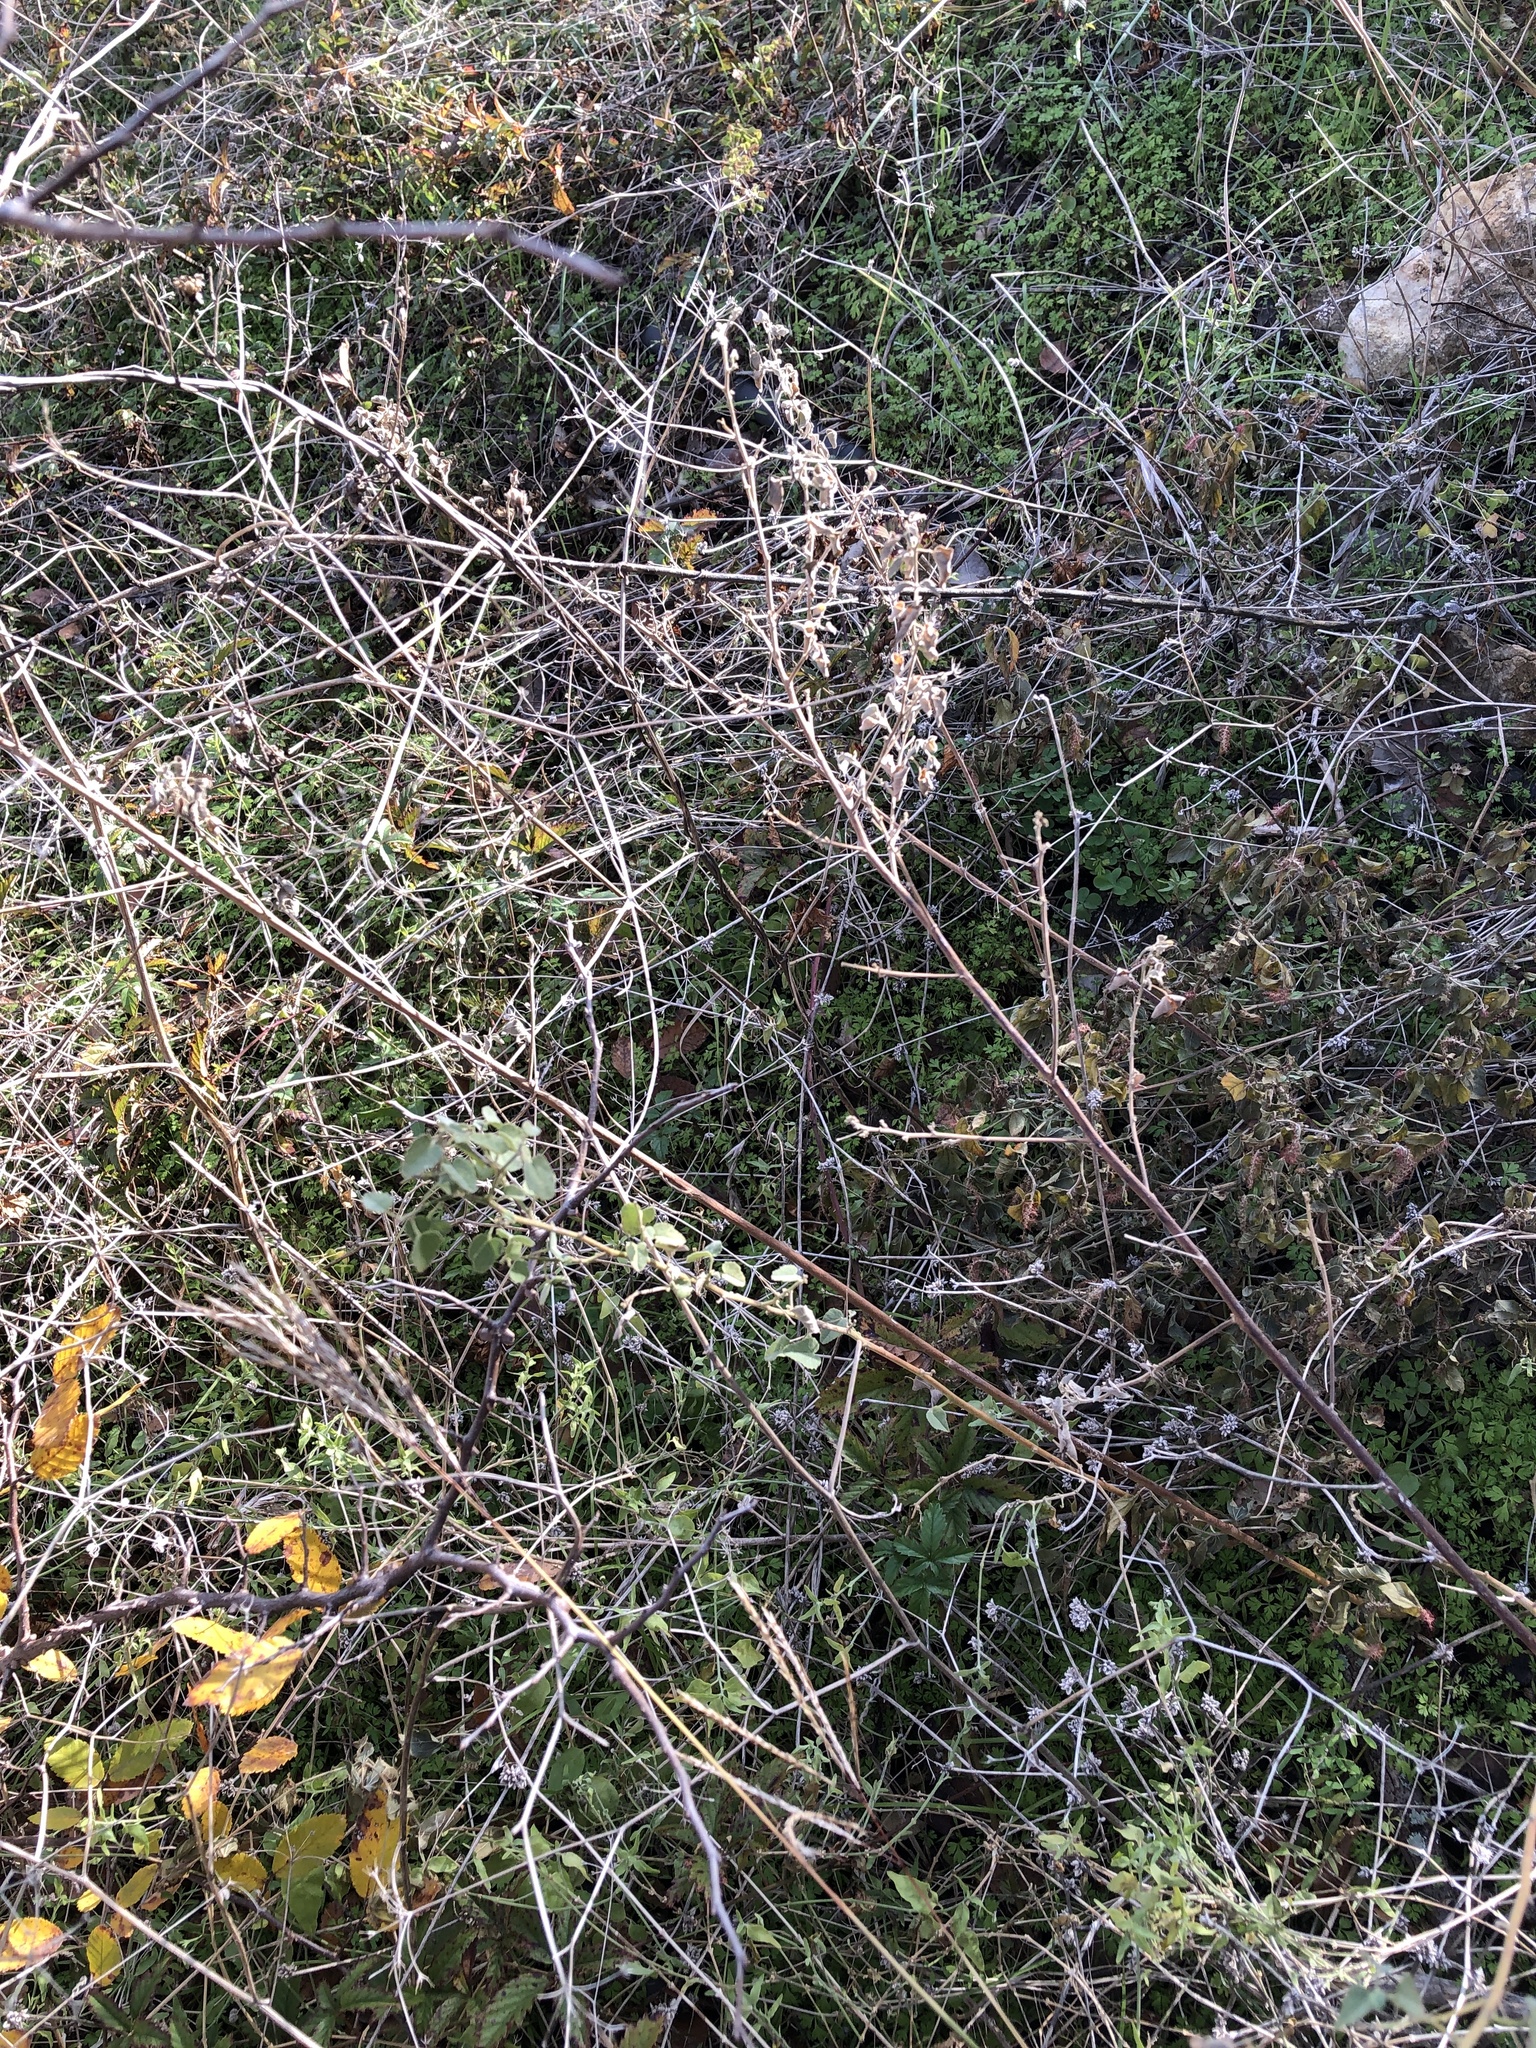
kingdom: Plantae
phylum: Tracheophyta
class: Magnoliopsida
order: Malvales
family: Malvaceae
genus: Abutilon
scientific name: Abutilon fruticosum
